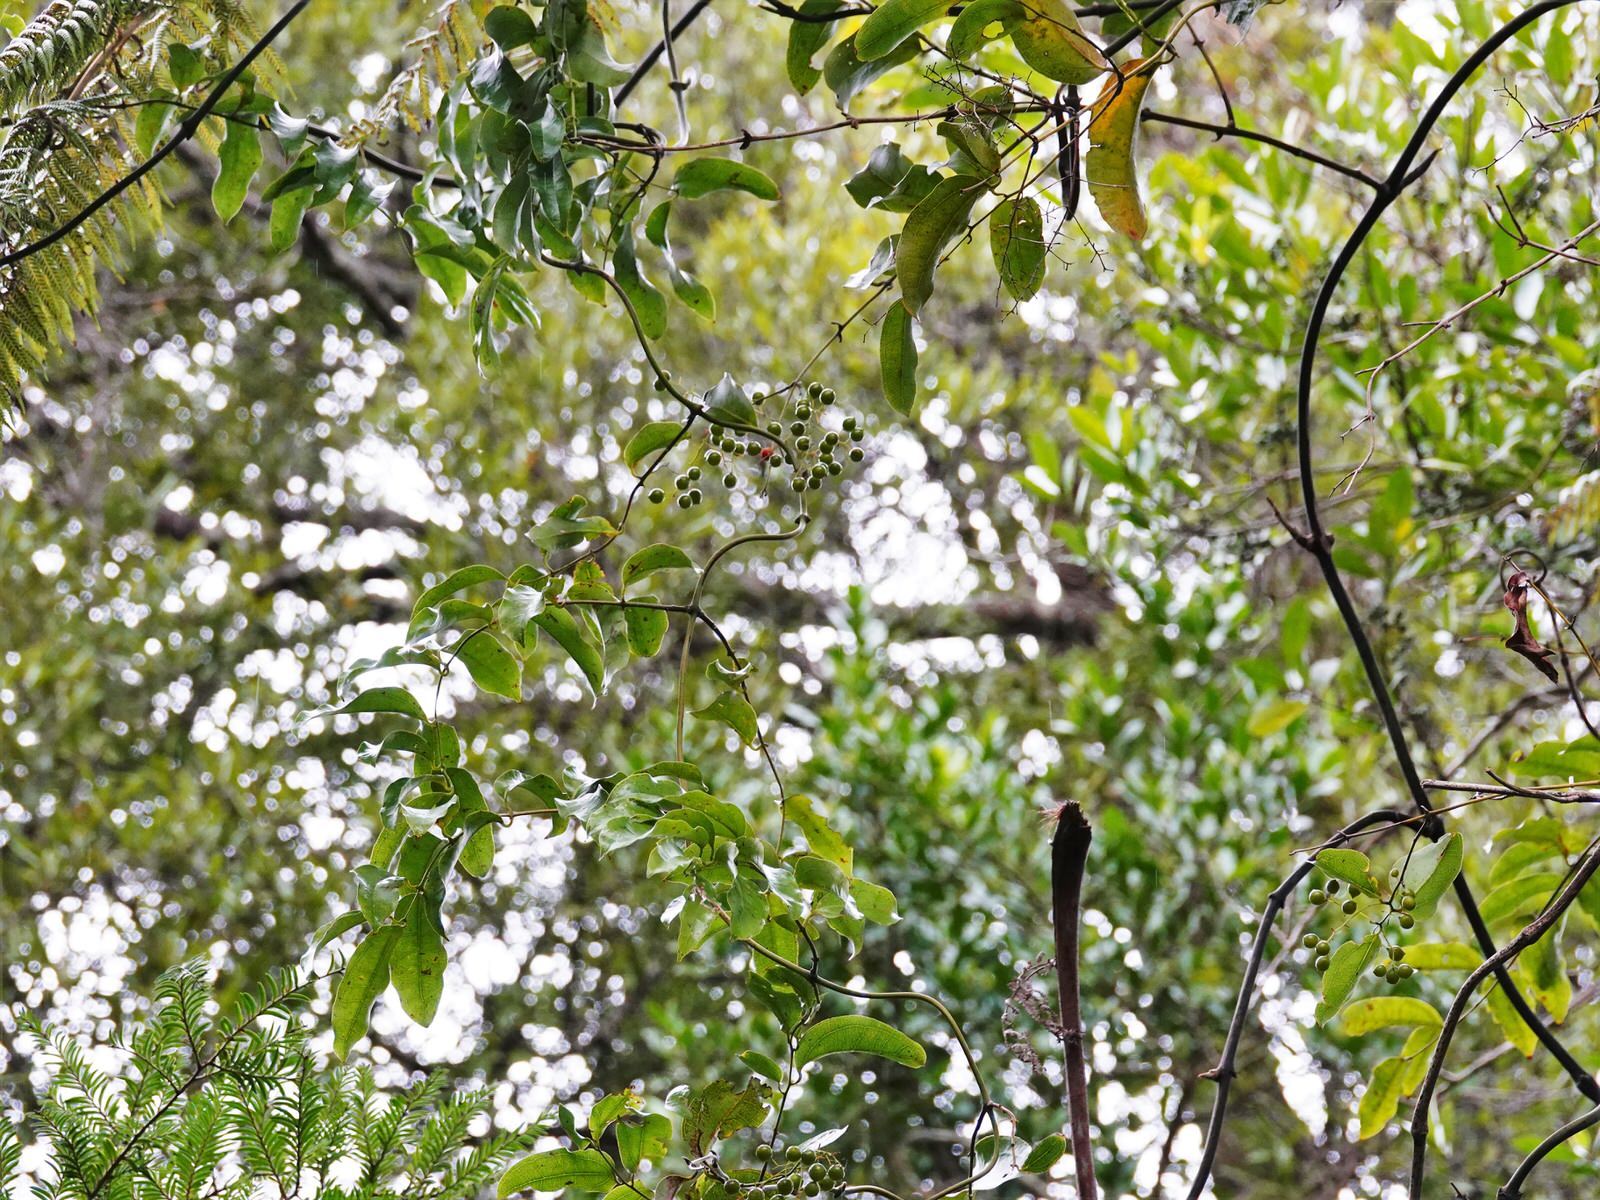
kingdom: Plantae
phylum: Tracheophyta
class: Liliopsida
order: Liliales
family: Ripogonaceae
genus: Ripogonum
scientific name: Ripogonum scandens
